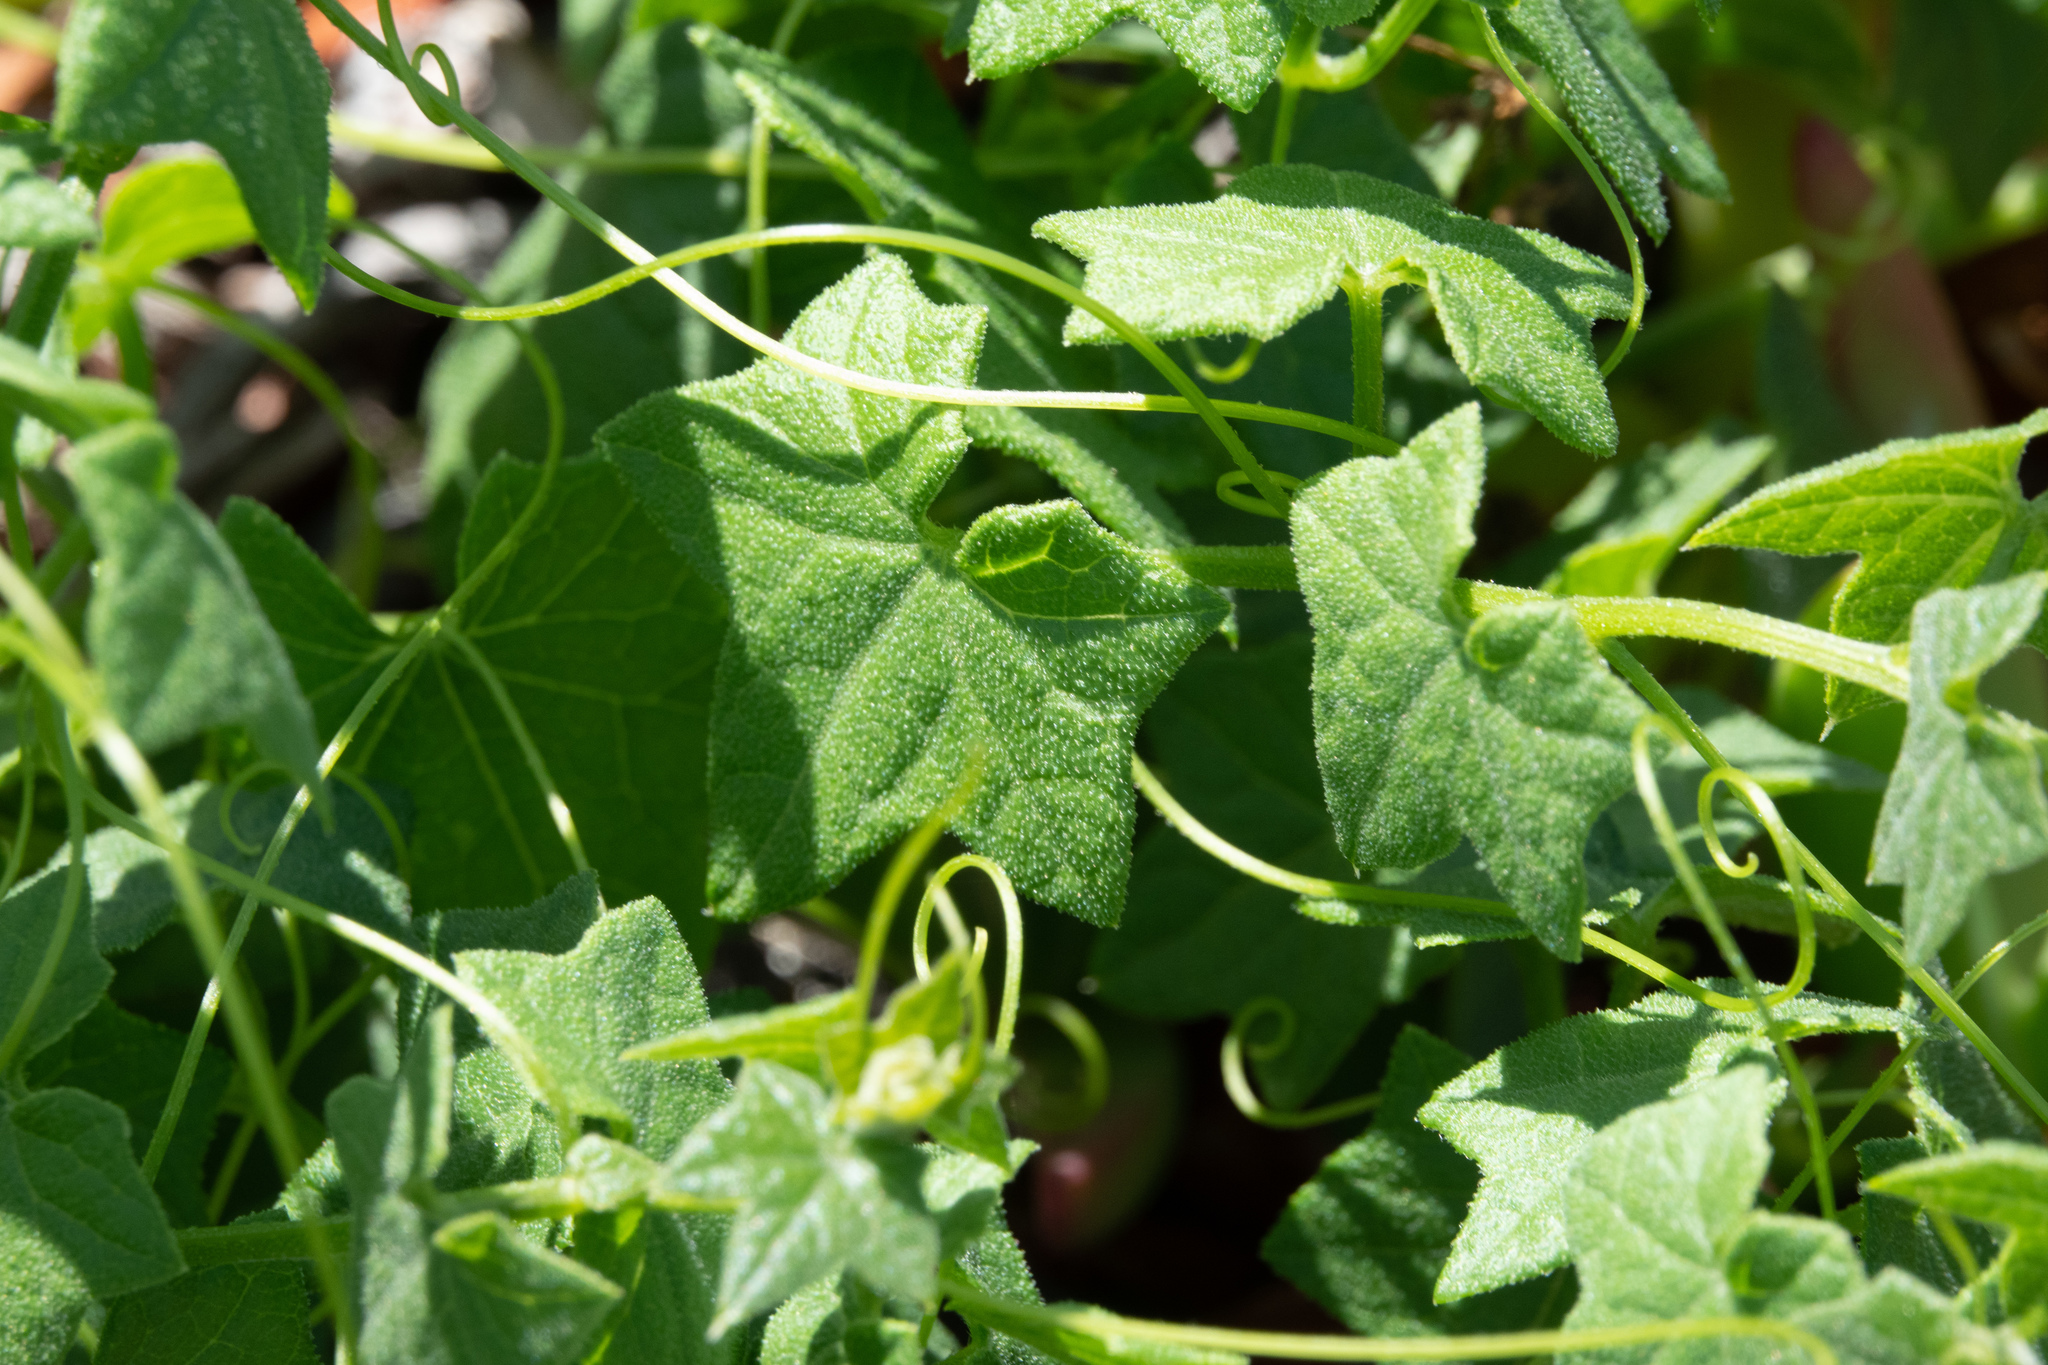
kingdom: Plantae
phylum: Tracheophyta
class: Magnoliopsida
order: Cucurbitales
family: Cucurbitaceae
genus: Marah
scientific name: Marah fabacea
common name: California manroot
